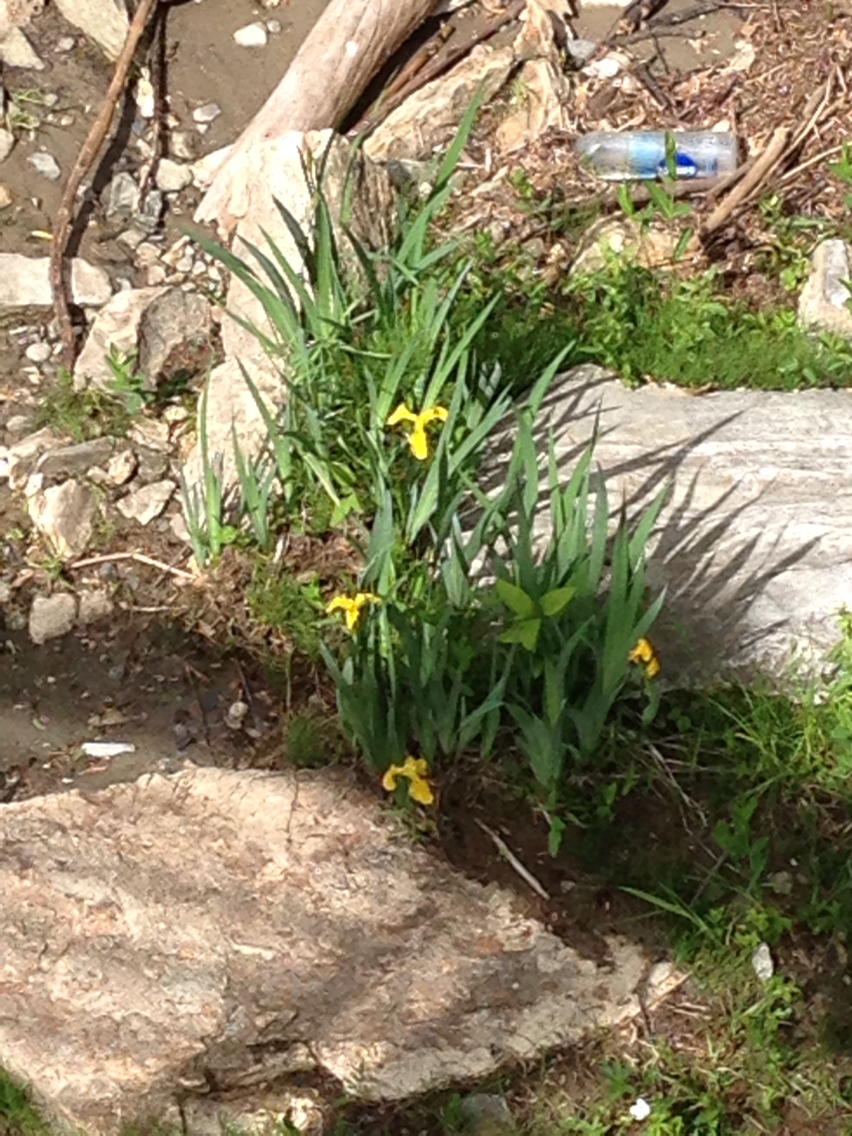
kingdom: Plantae
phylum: Tracheophyta
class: Liliopsida
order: Asparagales
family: Iridaceae
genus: Iris
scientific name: Iris pseudacorus
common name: Yellow flag
